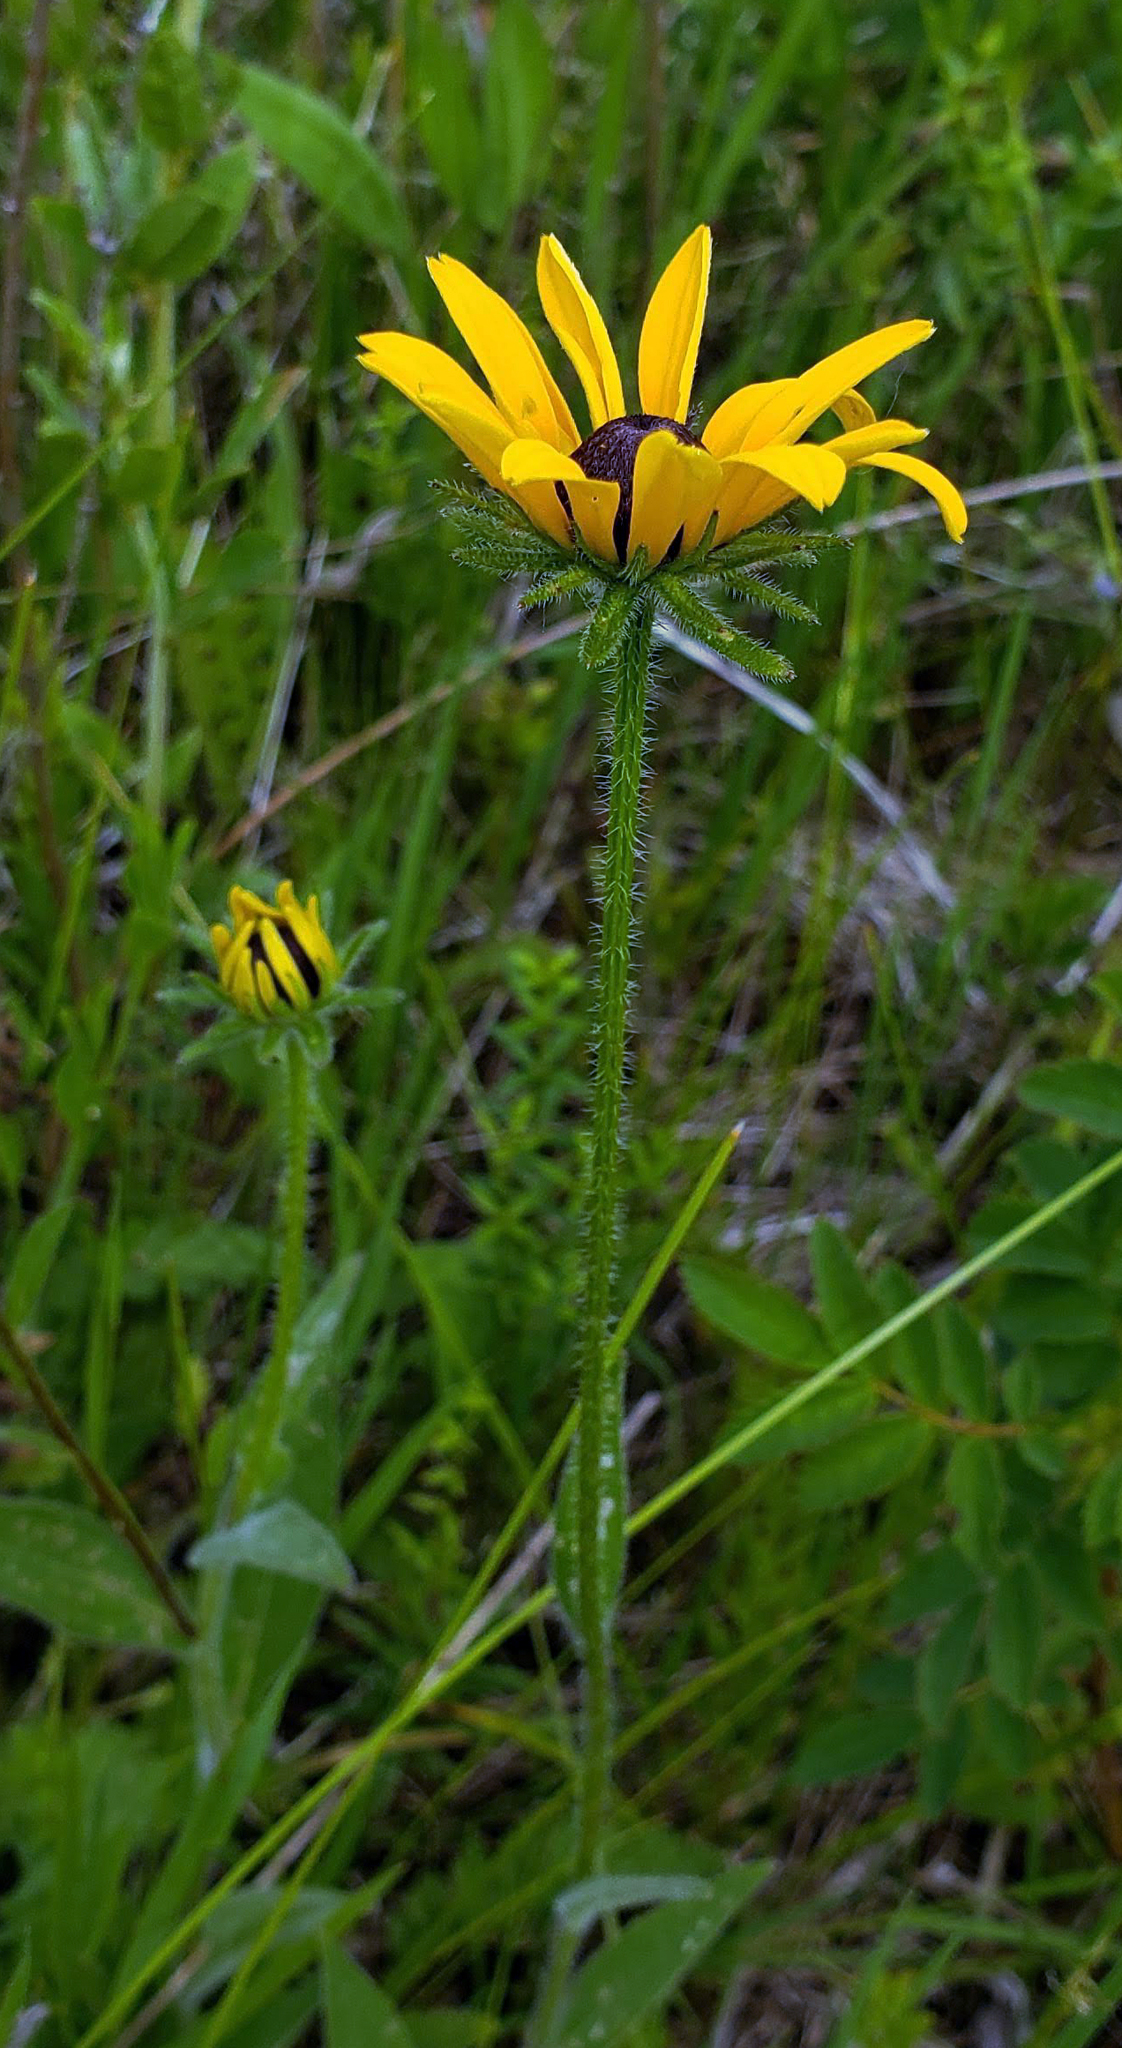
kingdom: Plantae
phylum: Tracheophyta
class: Magnoliopsida
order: Asterales
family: Asteraceae
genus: Rudbeckia
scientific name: Rudbeckia hirta
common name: Black-eyed-susan
